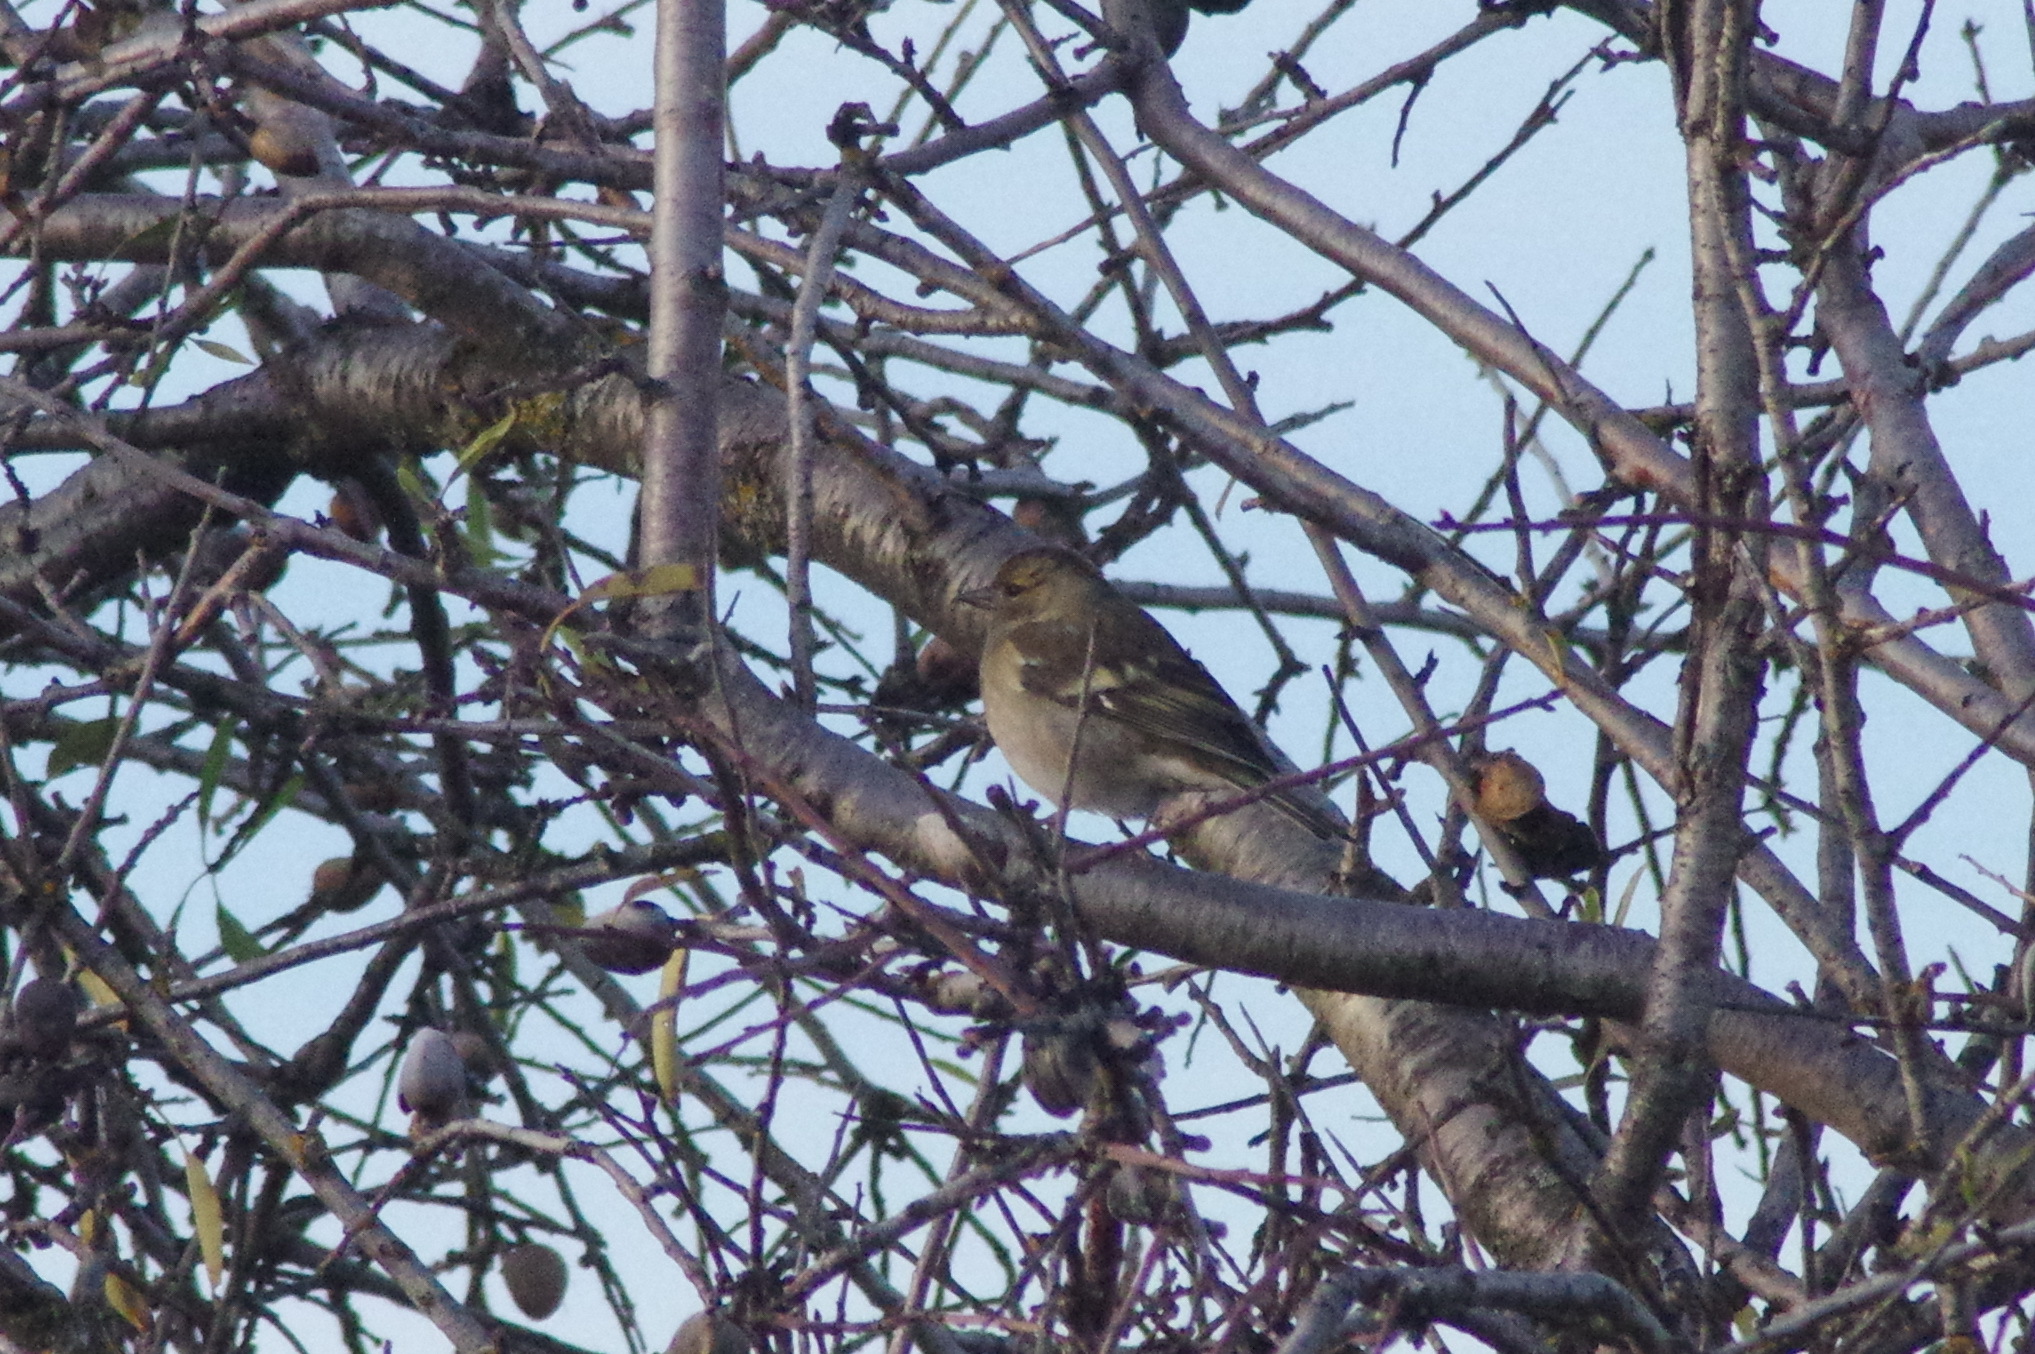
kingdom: Animalia
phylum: Chordata
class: Aves
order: Passeriformes
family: Fringillidae
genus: Fringilla
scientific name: Fringilla coelebs
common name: Common chaffinch
